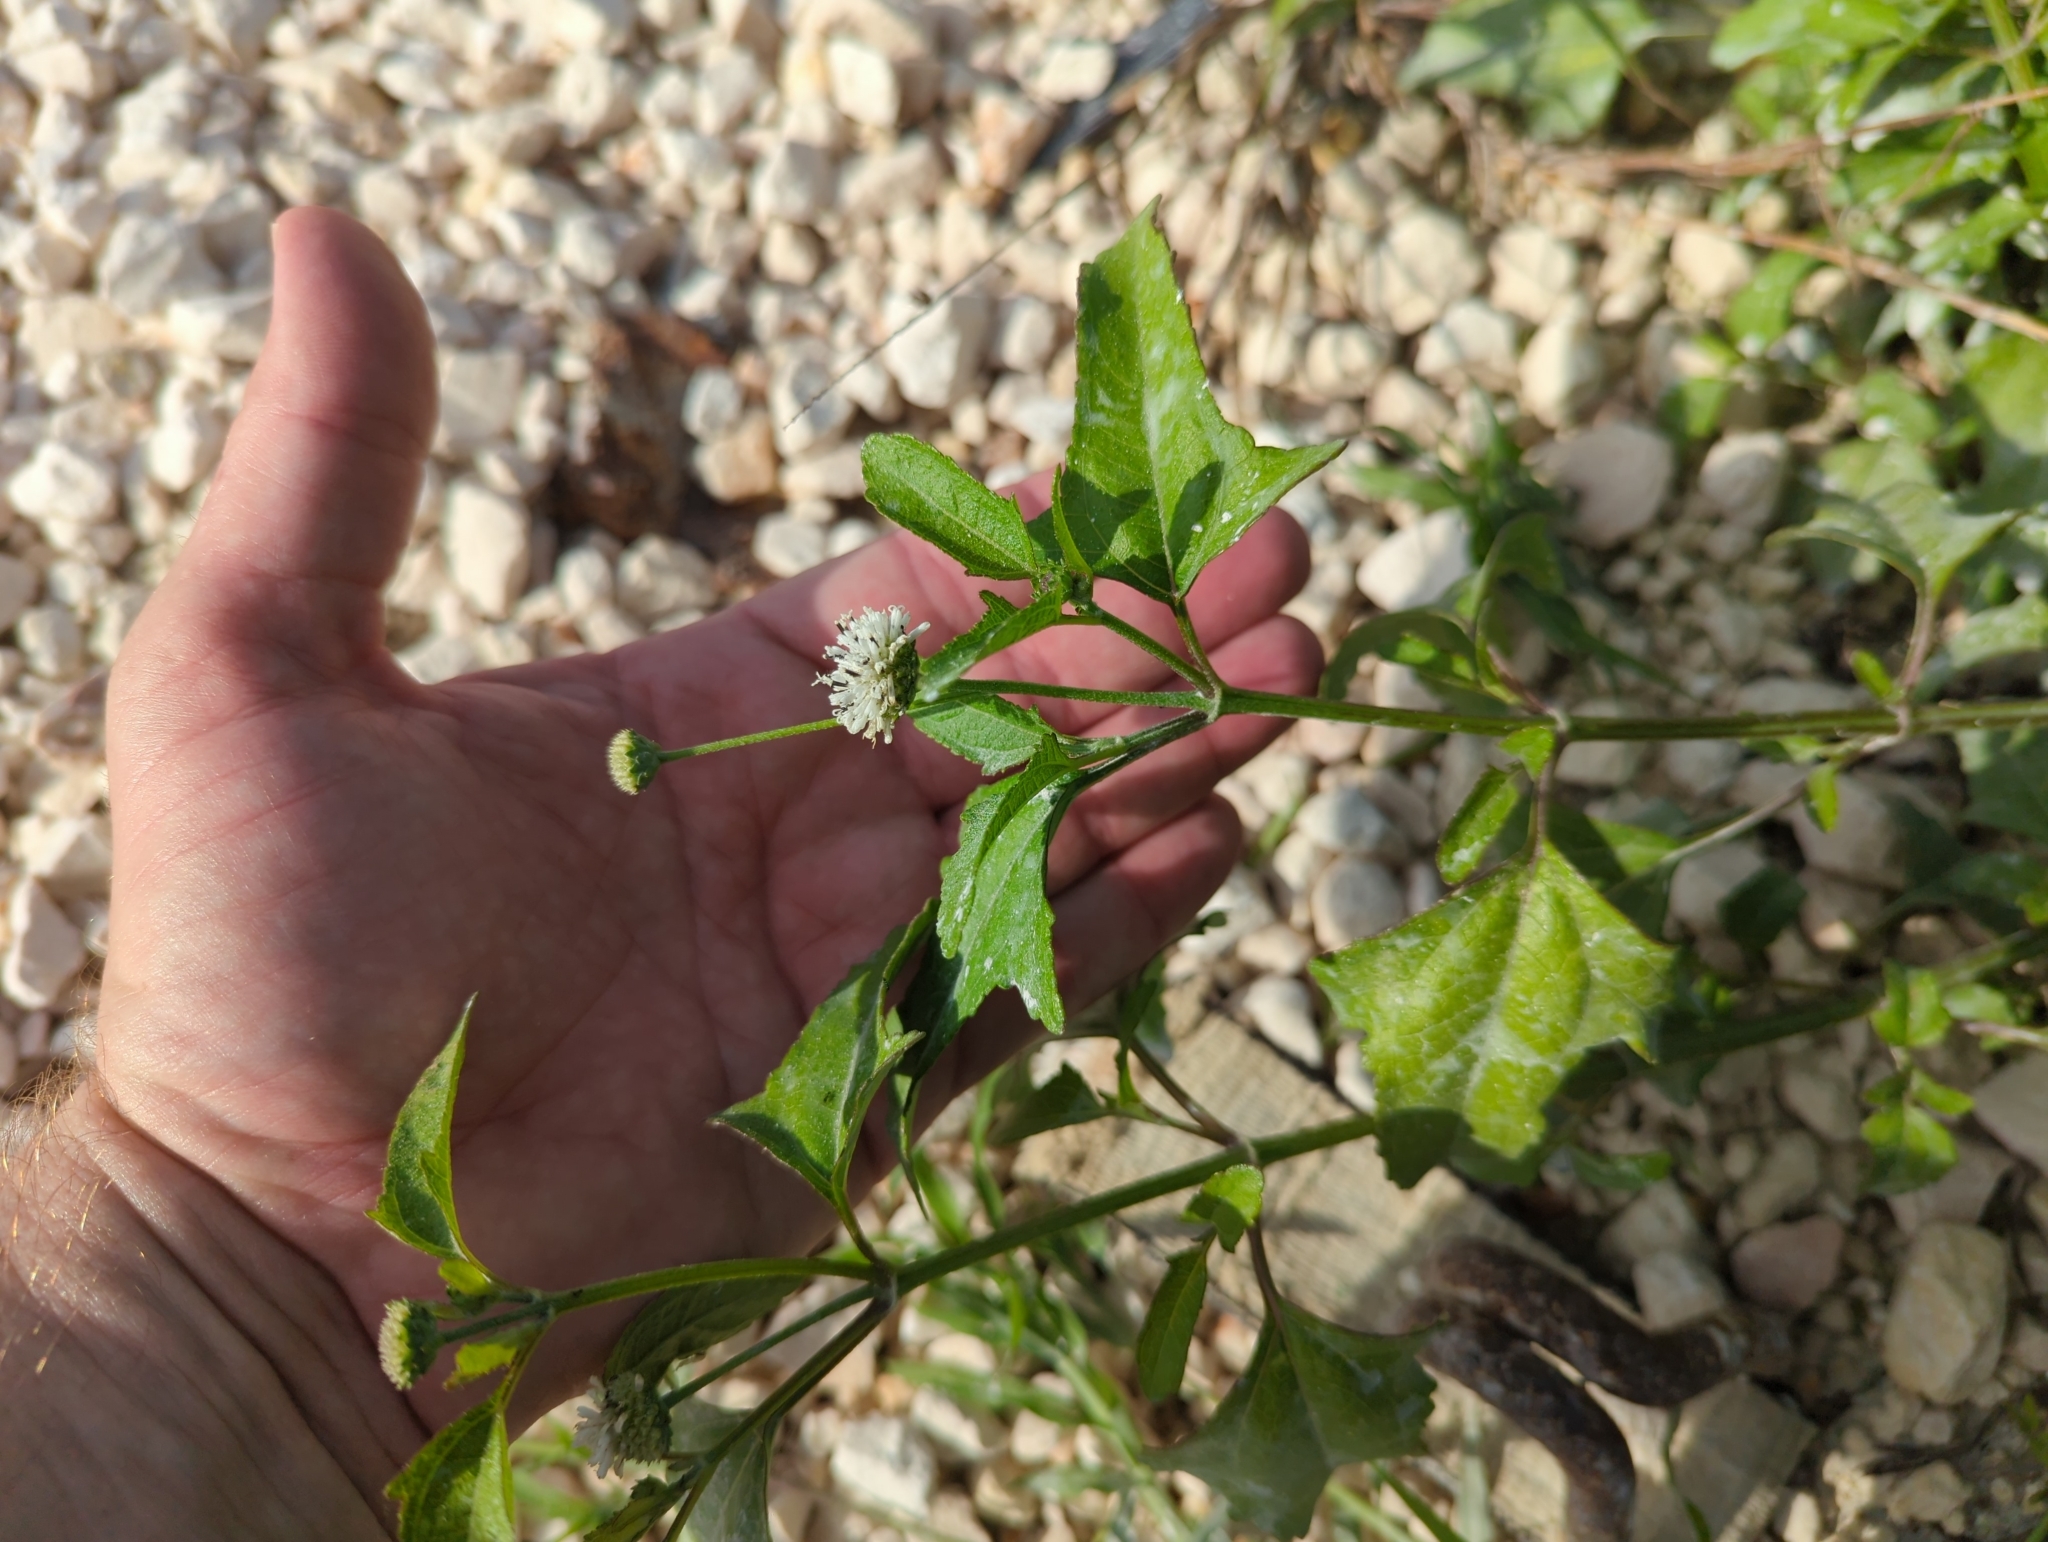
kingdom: Plantae
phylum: Tracheophyta
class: Magnoliopsida
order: Asterales
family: Asteraceae
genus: Melanthera
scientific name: Melanthera nivea
